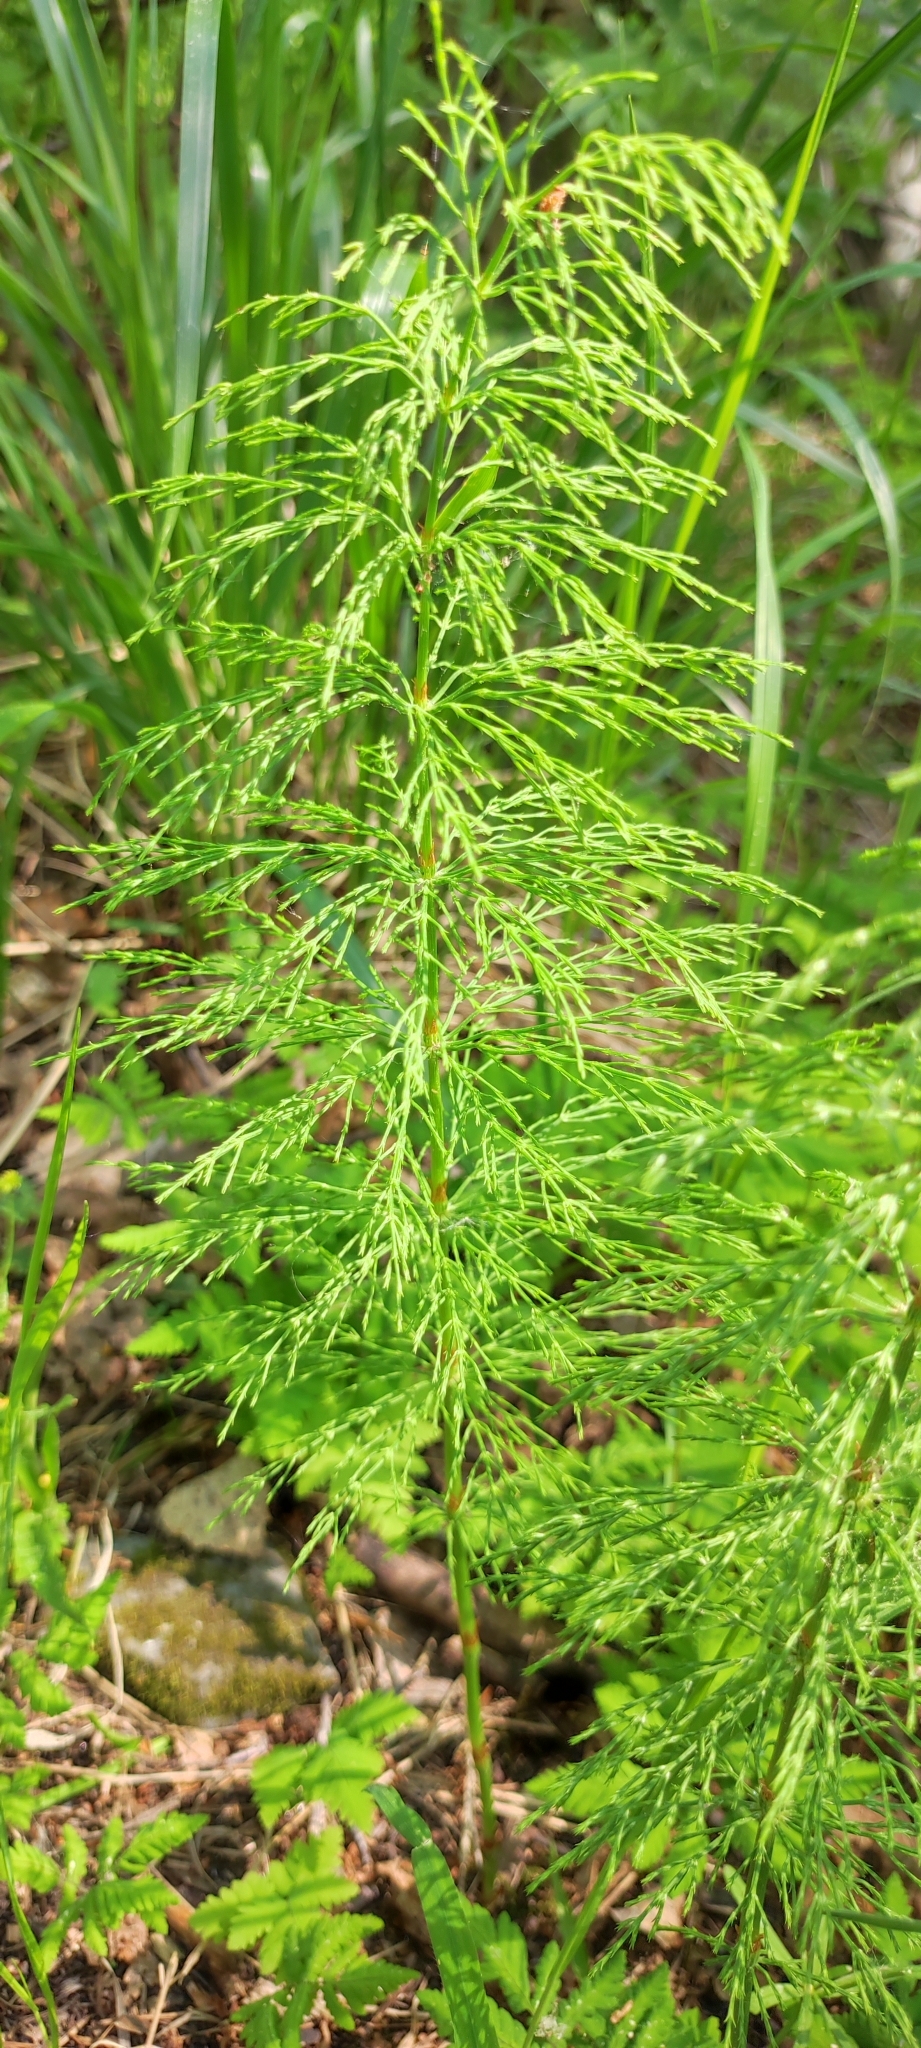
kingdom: Plantae
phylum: Tracheophyta
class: Polypodiopsida
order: Equisetales
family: Equisetaceae
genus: Equisetum
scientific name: Equisetum sylvaticum
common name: Wood horsetail
